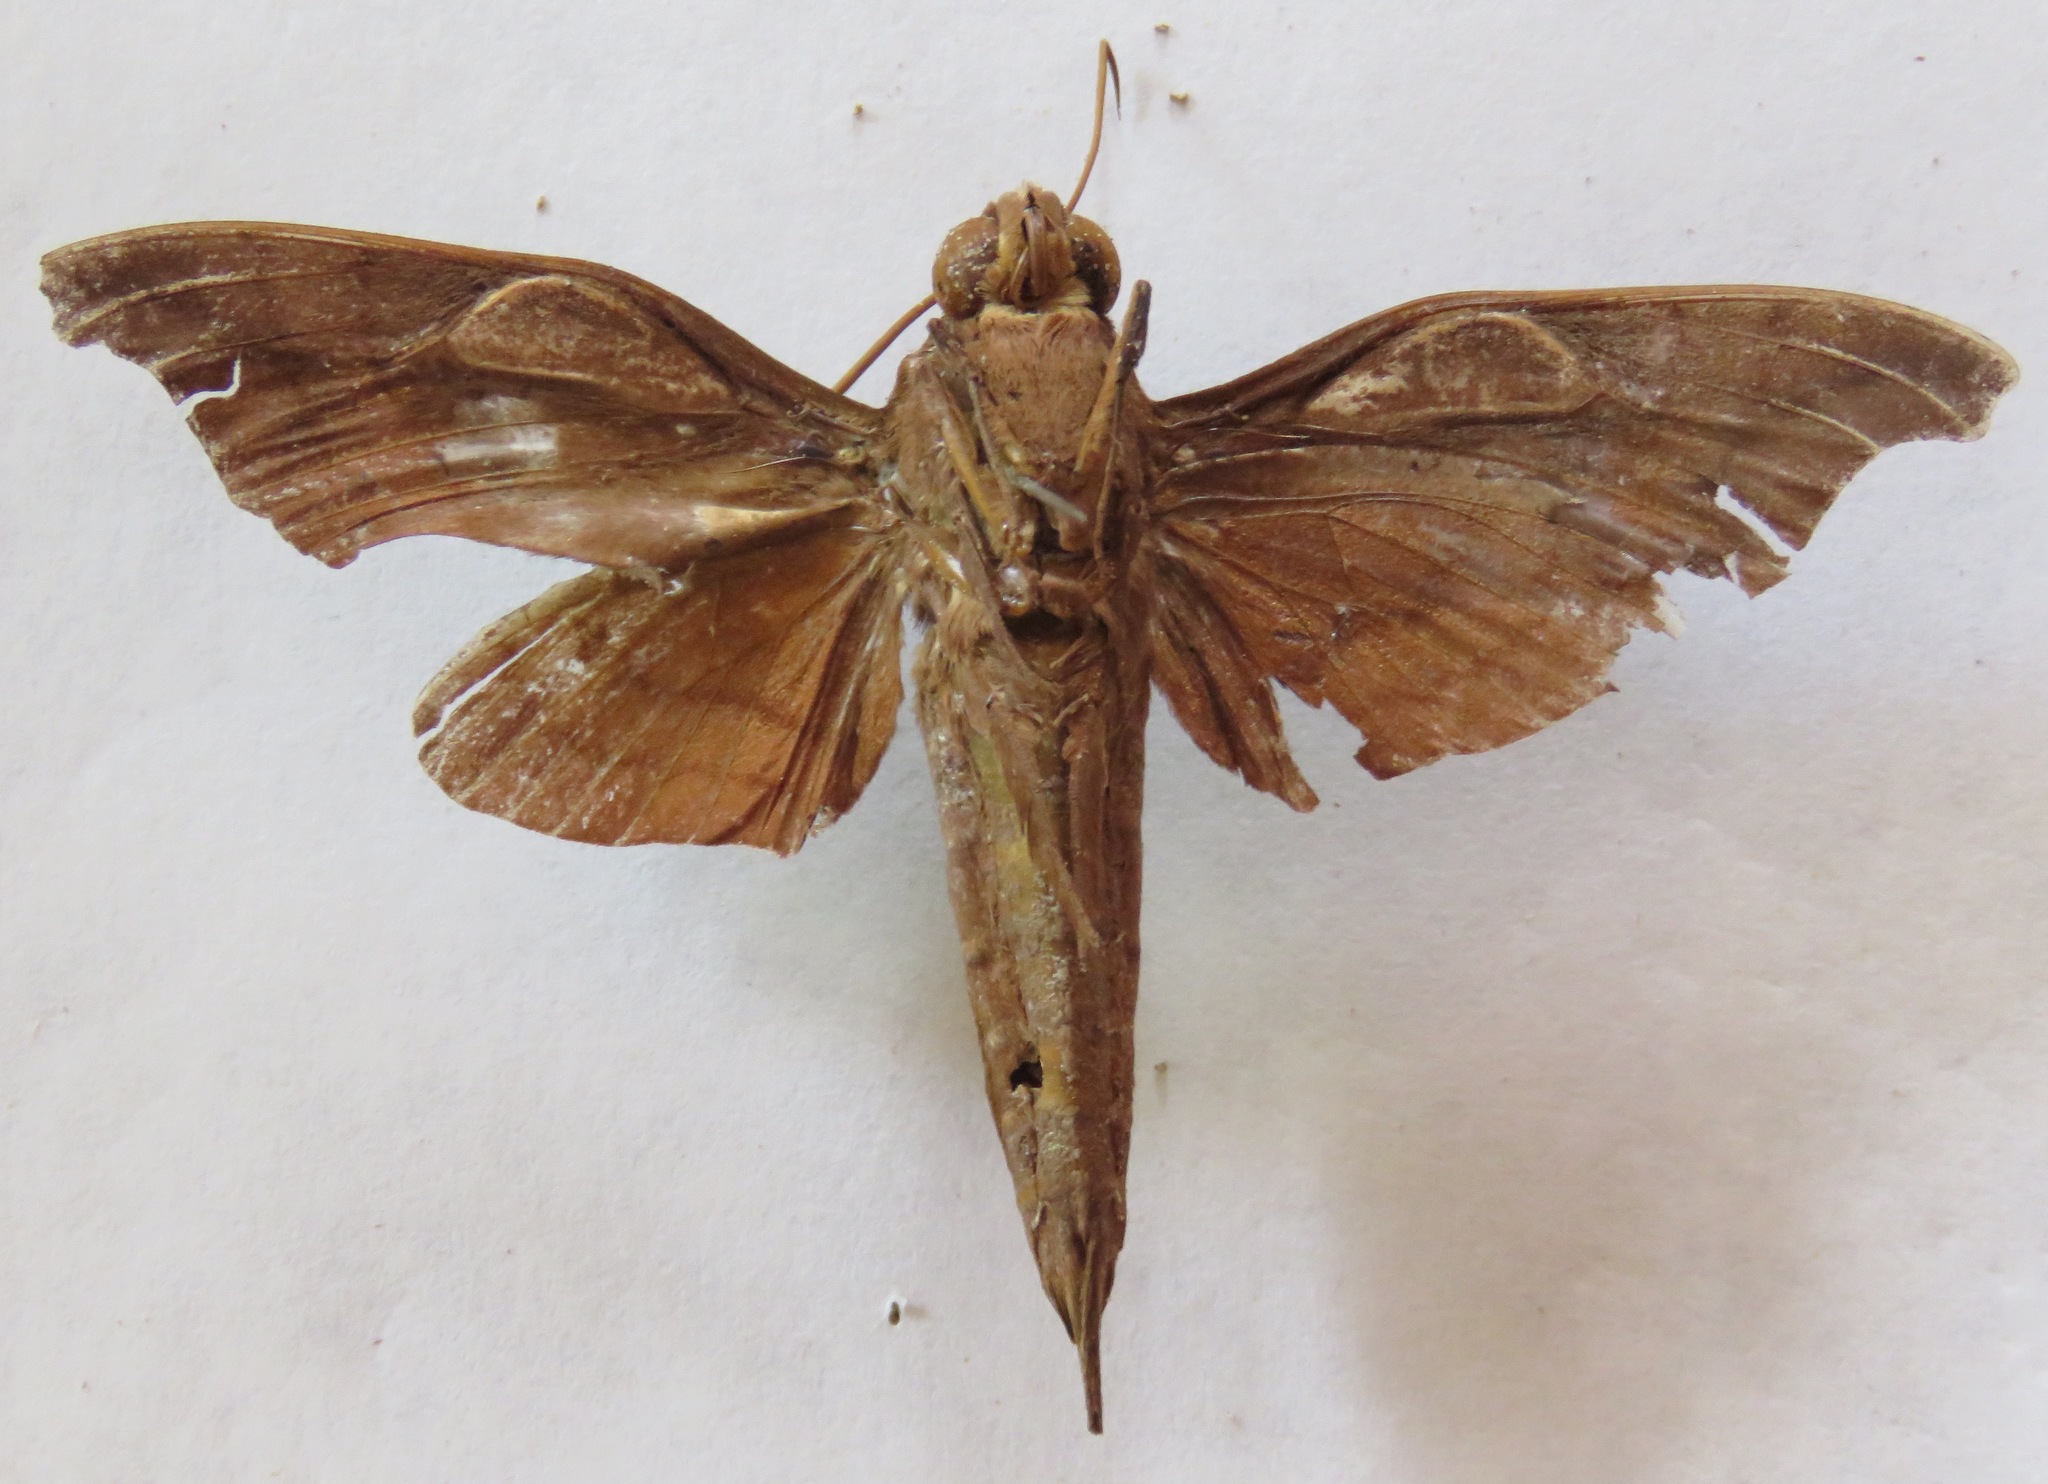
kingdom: Animalia
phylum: Arthropoda
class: Insecta
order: Lepidoptera
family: Sphingidae
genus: Enyo
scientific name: Enyo gorgon
